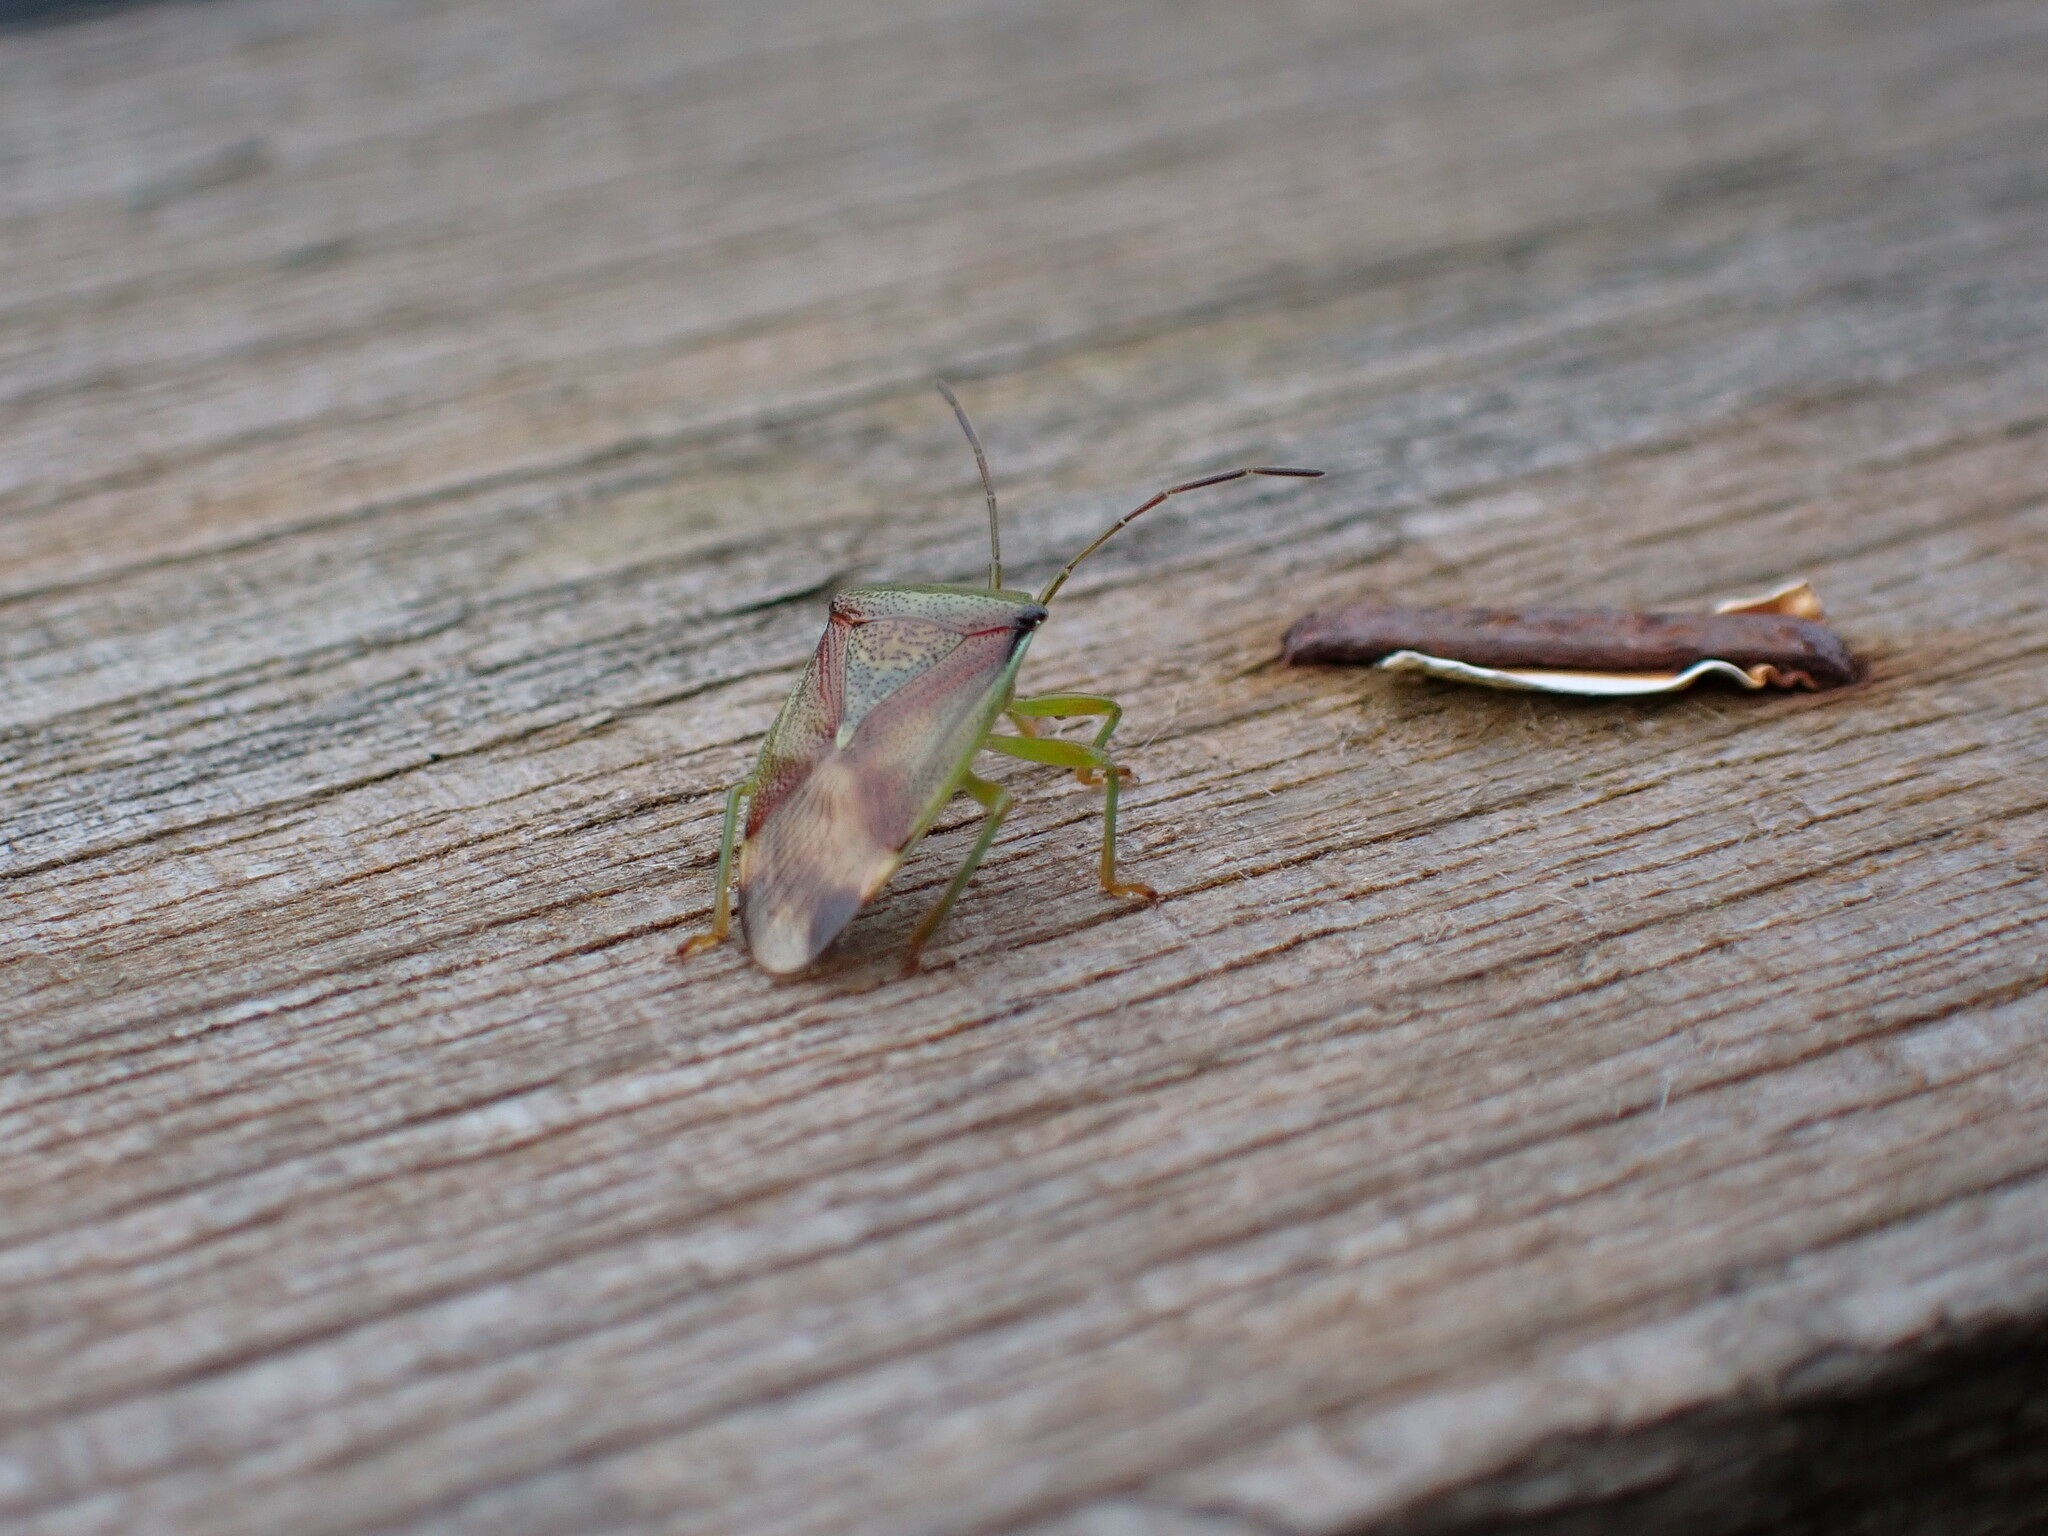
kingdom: Animalia
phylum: Arthropoda
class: Insecta
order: Hemiptera
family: Acanthosomatidae
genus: Elasmostethus
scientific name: Elasmostethus interstinctus
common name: Birch shieldbug
